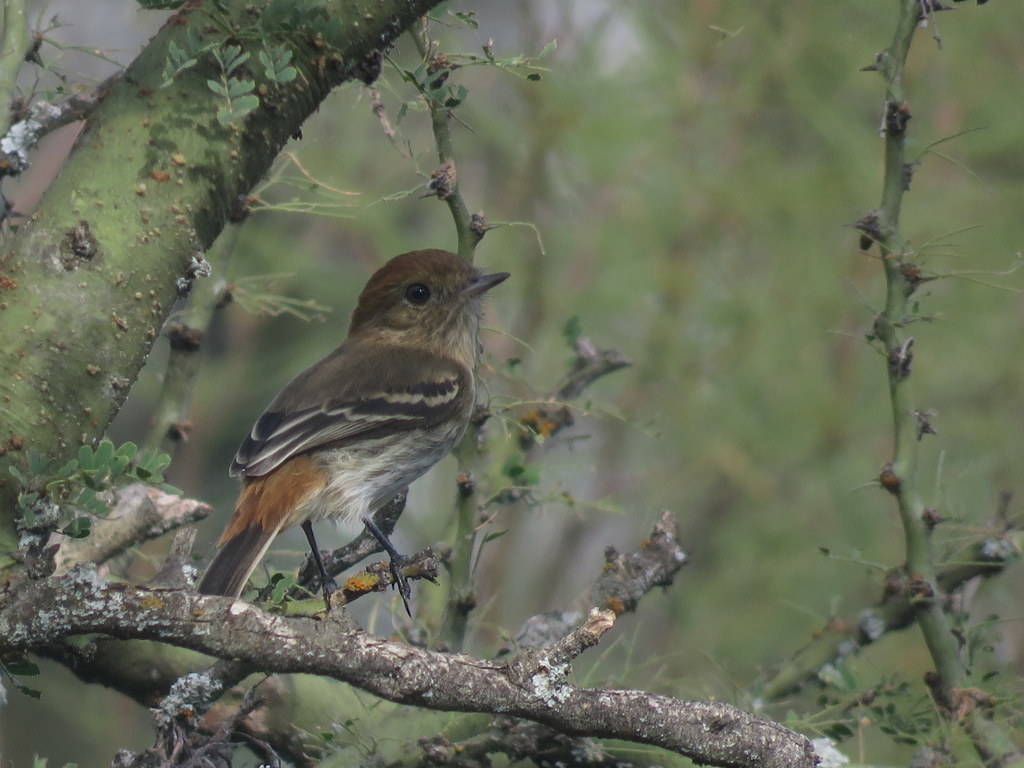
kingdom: Animalia
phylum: Chordata
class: Aves
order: Passeriformes
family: Tyrannidae
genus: Knipolegus
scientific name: Knipolegus striaticeps
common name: Cinereous tyrant
